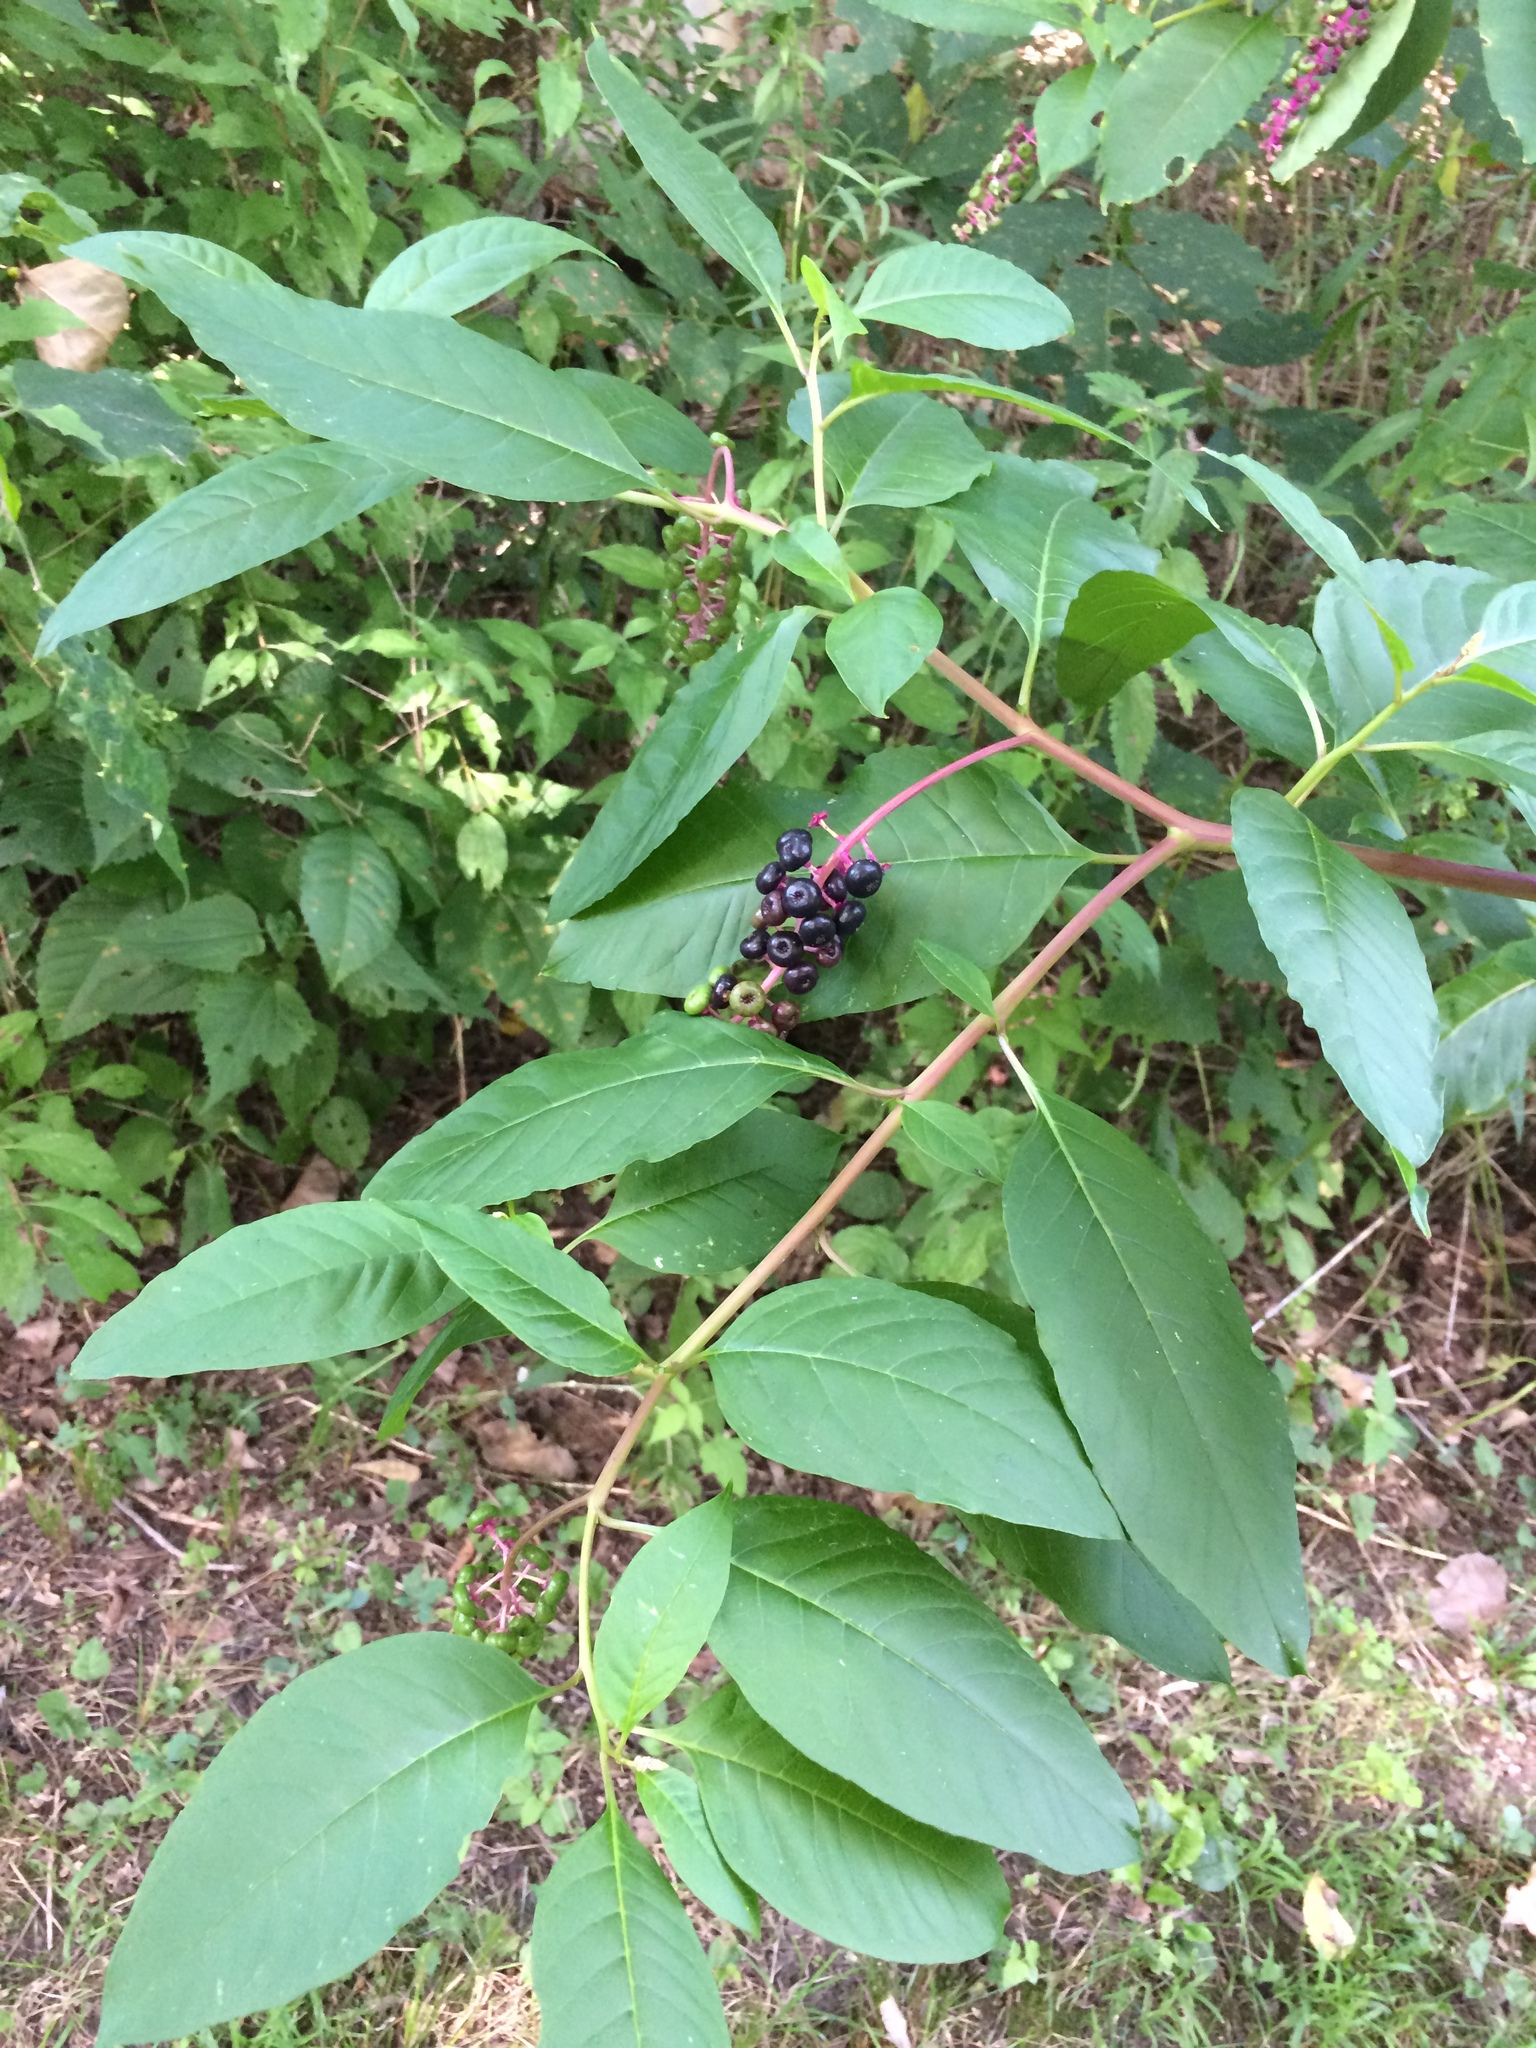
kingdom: Plantae
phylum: Tracheophyta
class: Magnoliopsida
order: Caryophyllales
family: Phytolaccaceae
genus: Phytolacca
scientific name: Phytolacca americana
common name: American pokeweed
